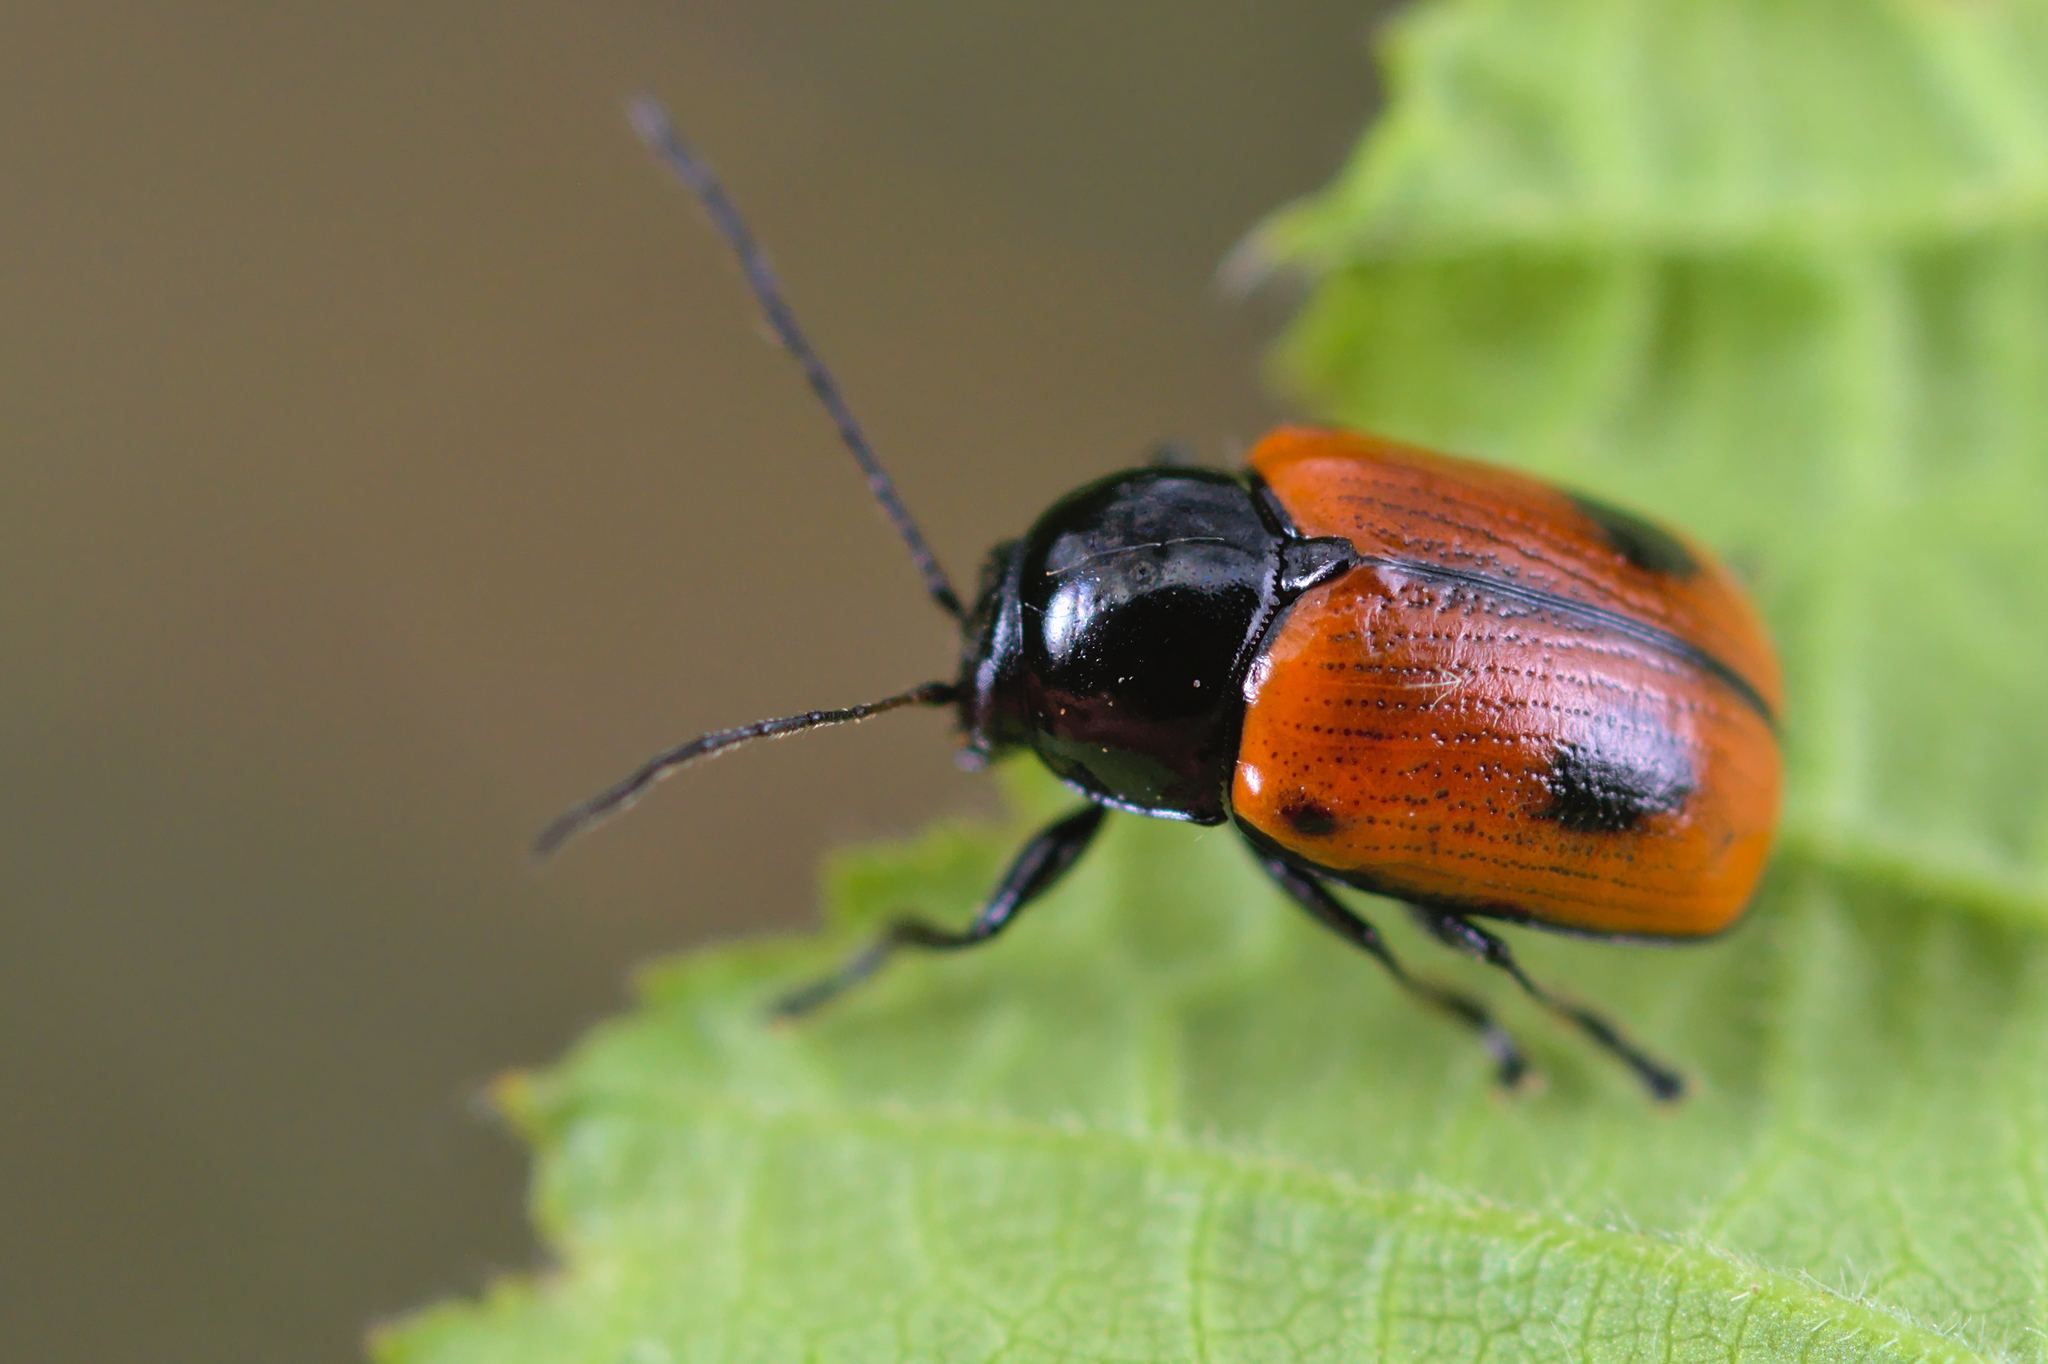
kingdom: Animalia
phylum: Arthropoda
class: Insecta
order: Coleoptera
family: Chrysomelidae
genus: Chiridopsis
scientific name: Chiridopsis bipunctata
